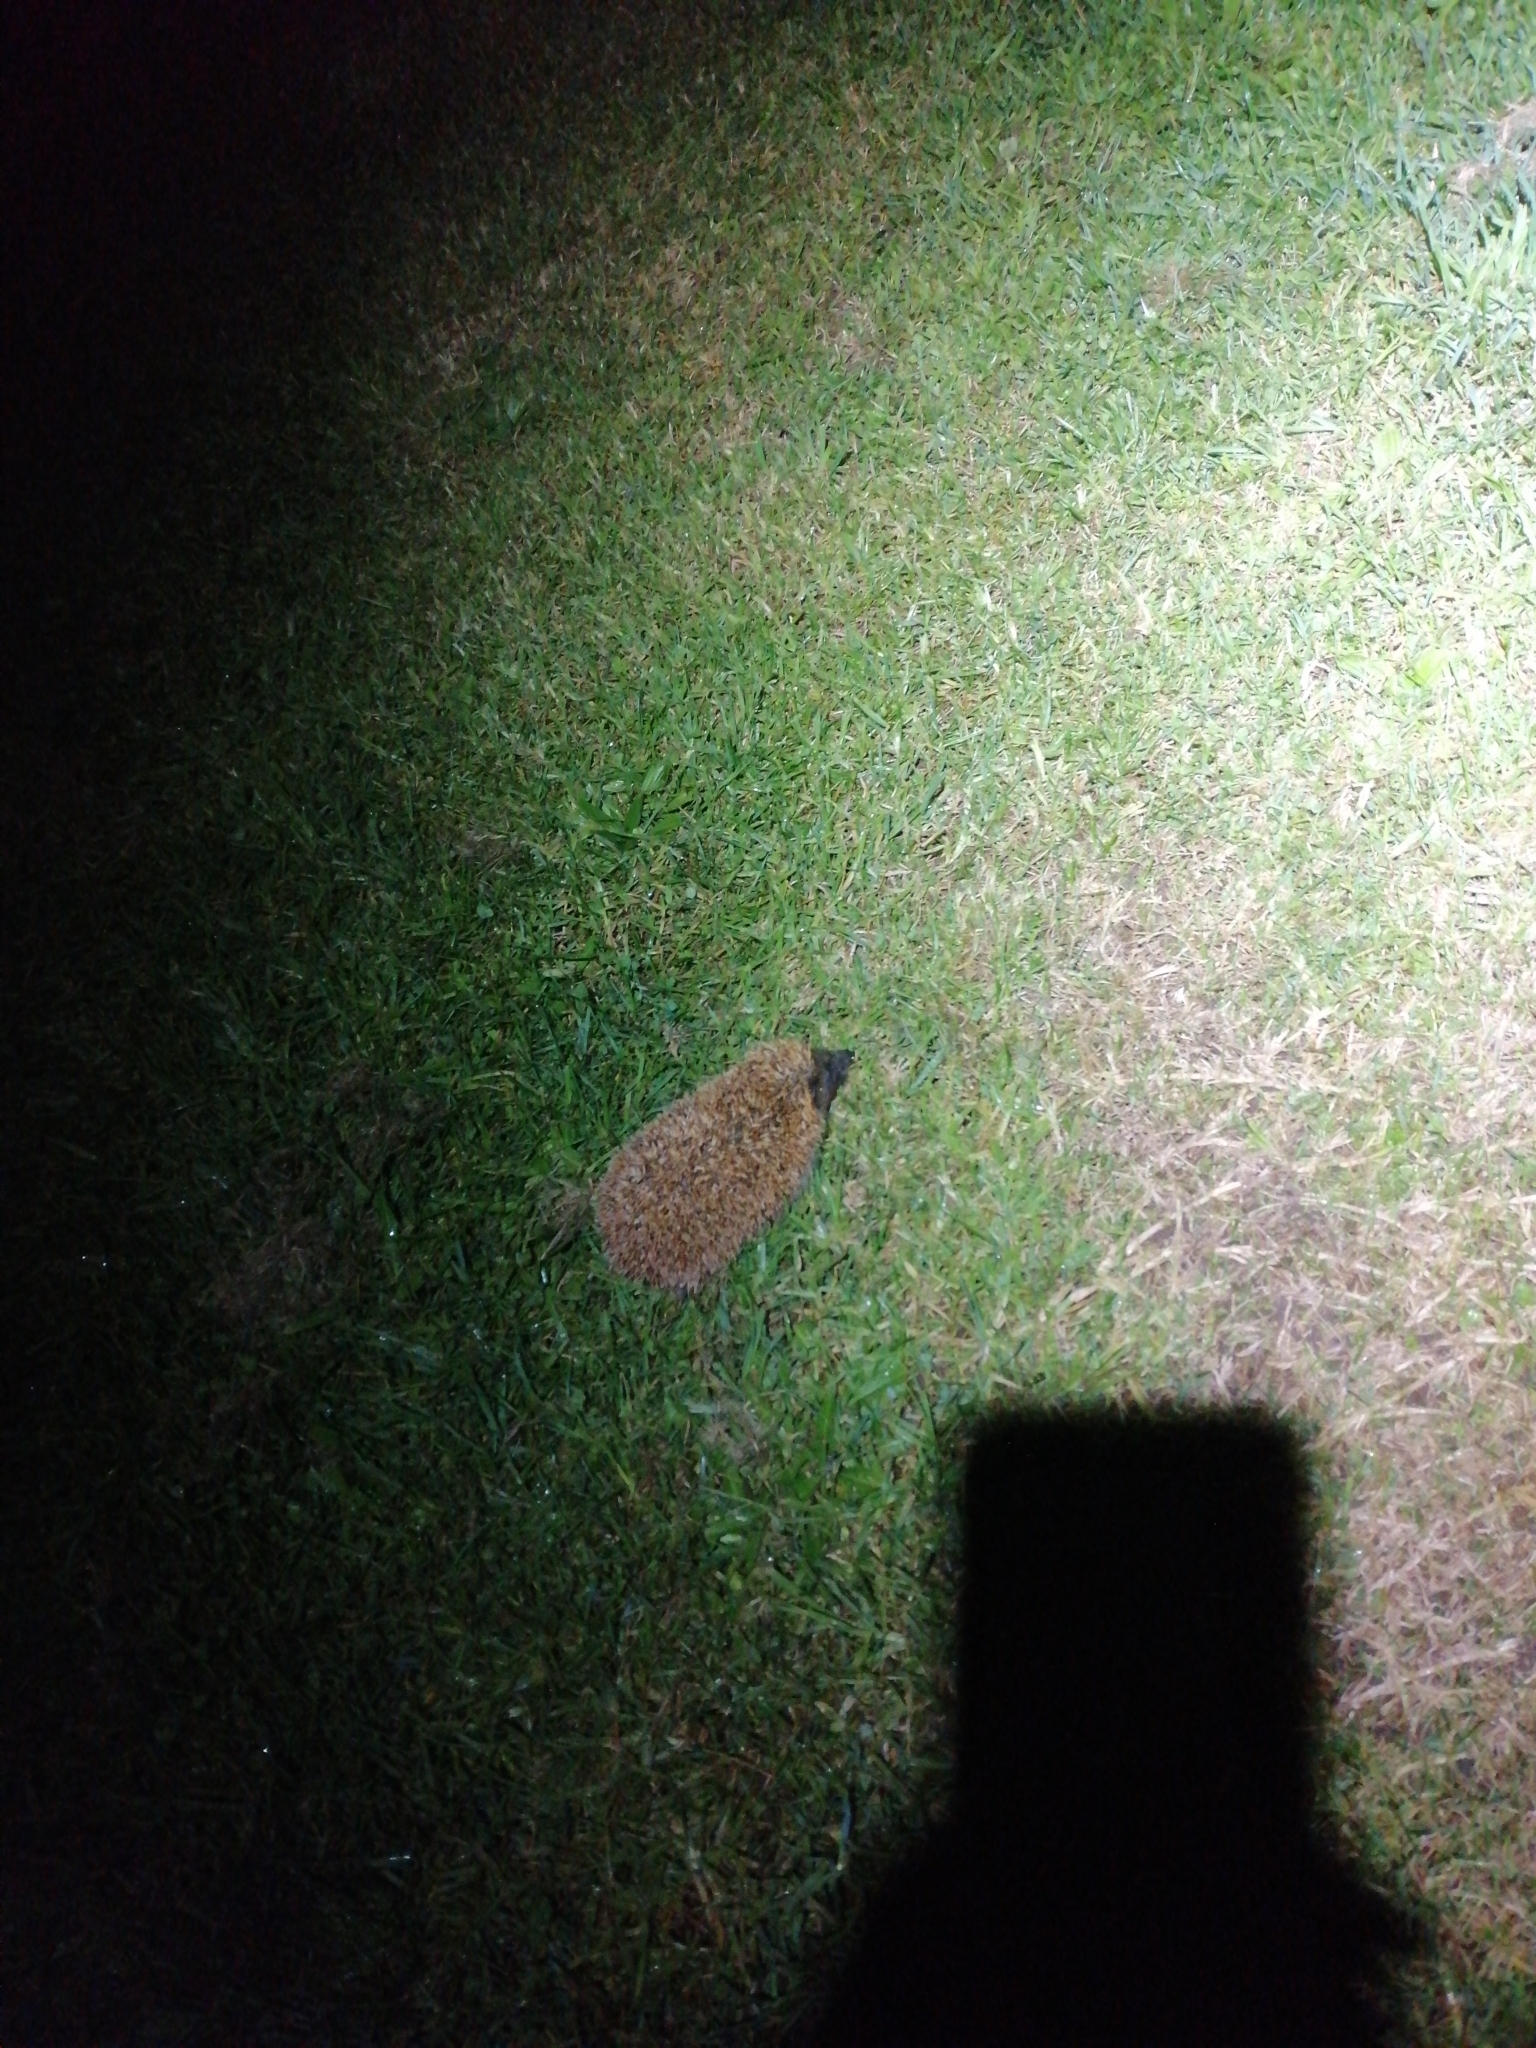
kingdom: Animalia
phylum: Chordata
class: Mammalia
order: Erinaceomorpha
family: Erinaceidae
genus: Erinaceus
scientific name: Erinaceus europaeus
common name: West european hedgehog
